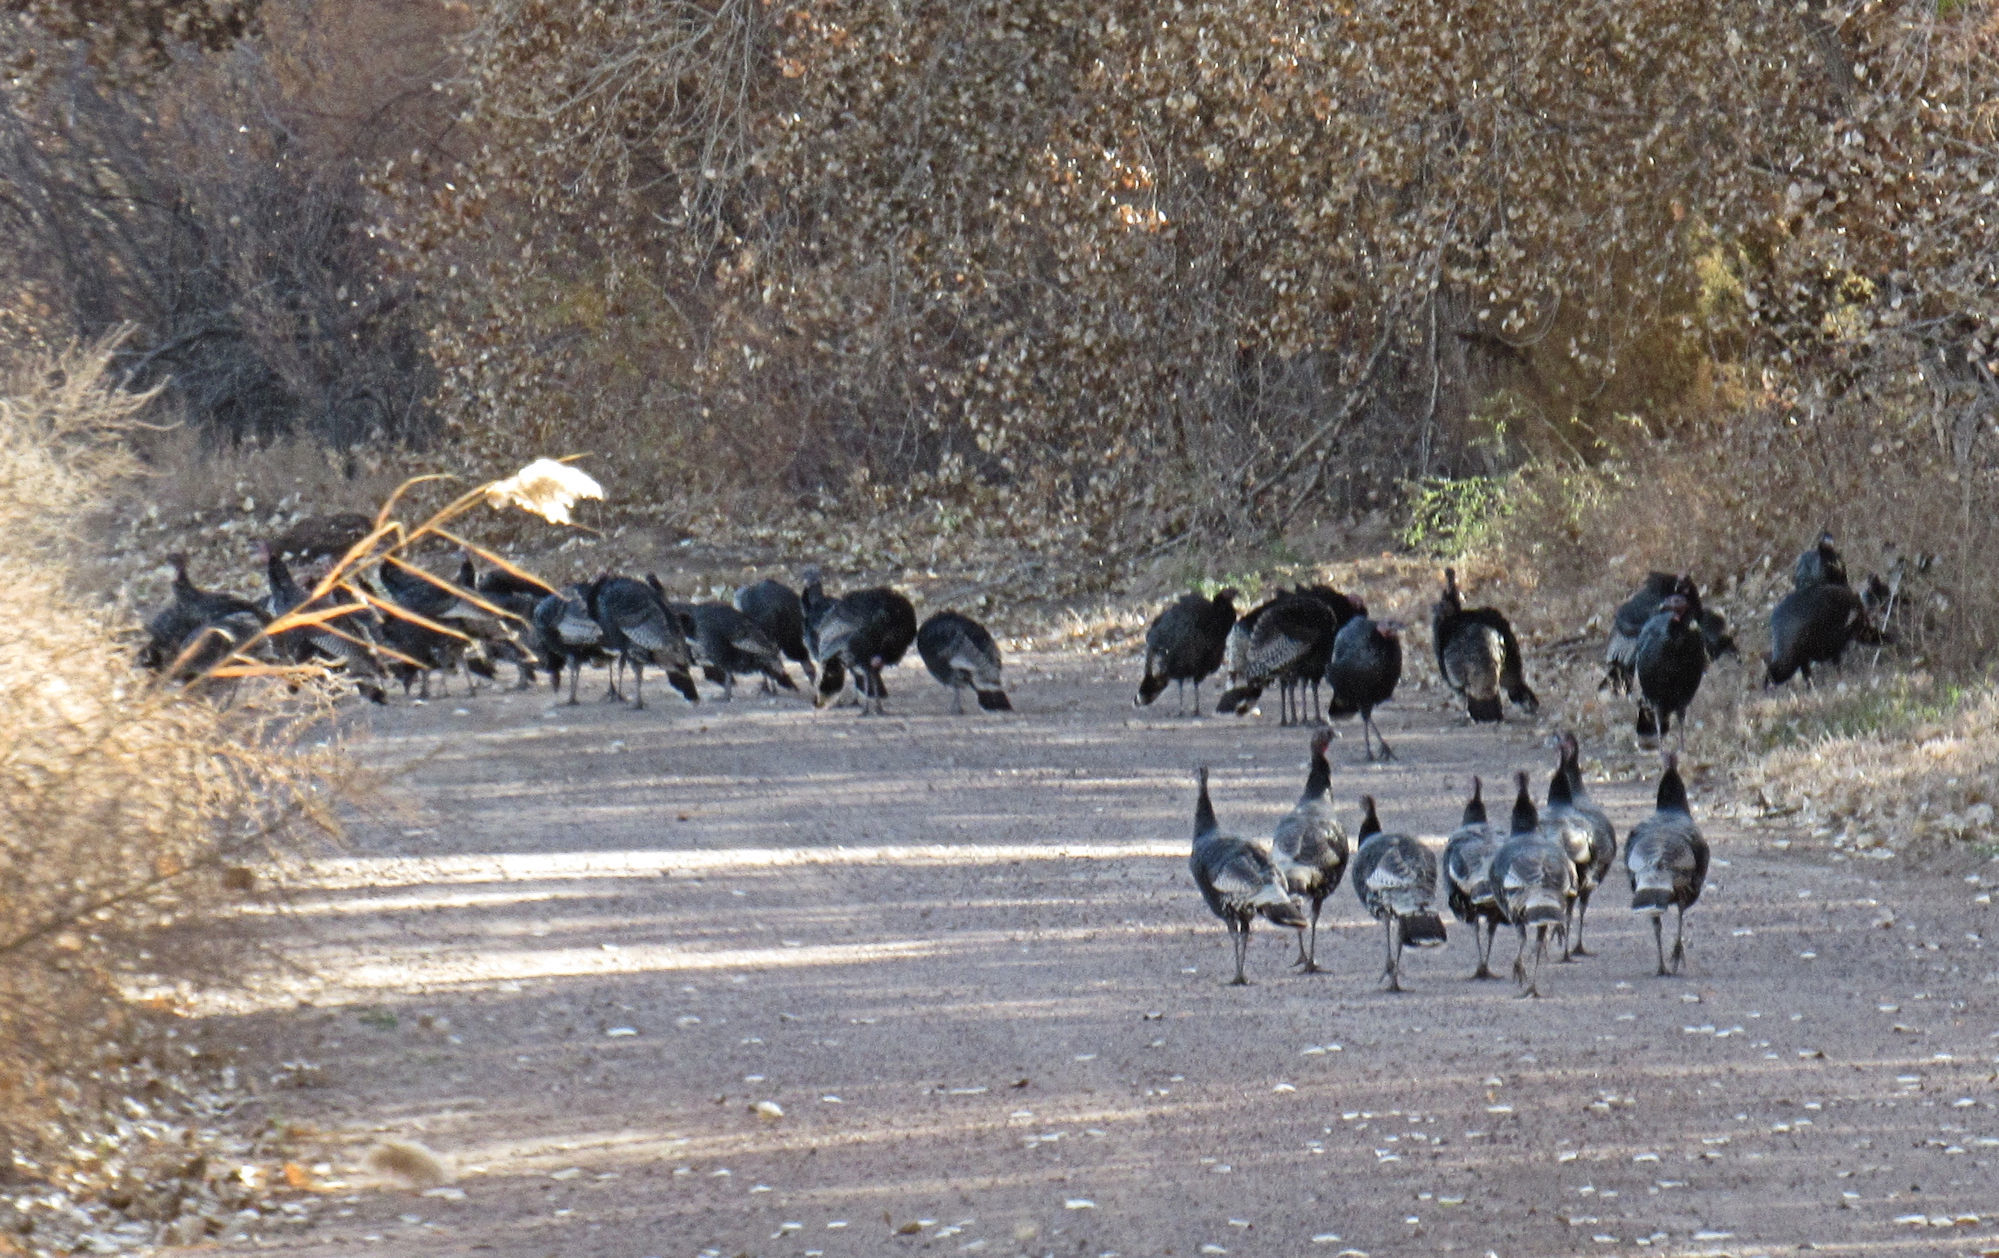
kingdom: Animalia
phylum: Chordata
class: Aves
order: Galliformes
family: Phasianidae
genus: Meleagris
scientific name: Meleagris gallopavo
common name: Wild turkey
